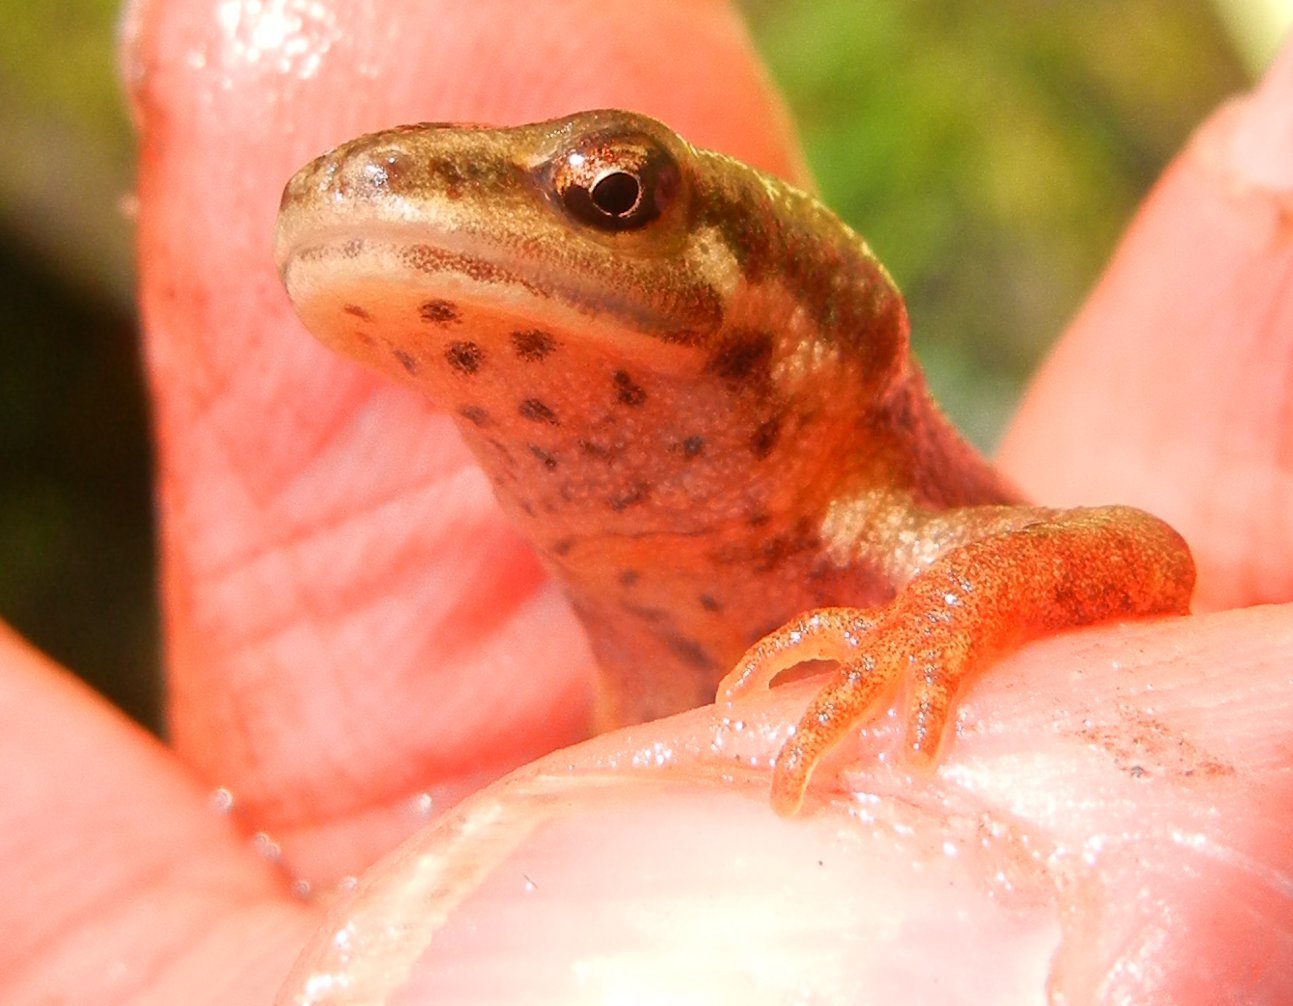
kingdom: Animalia
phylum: Chordata
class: Amphibia
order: Caudata
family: Salamandridae
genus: Lissotriton
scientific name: Lissotriton vulgaris
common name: Smooth newt
